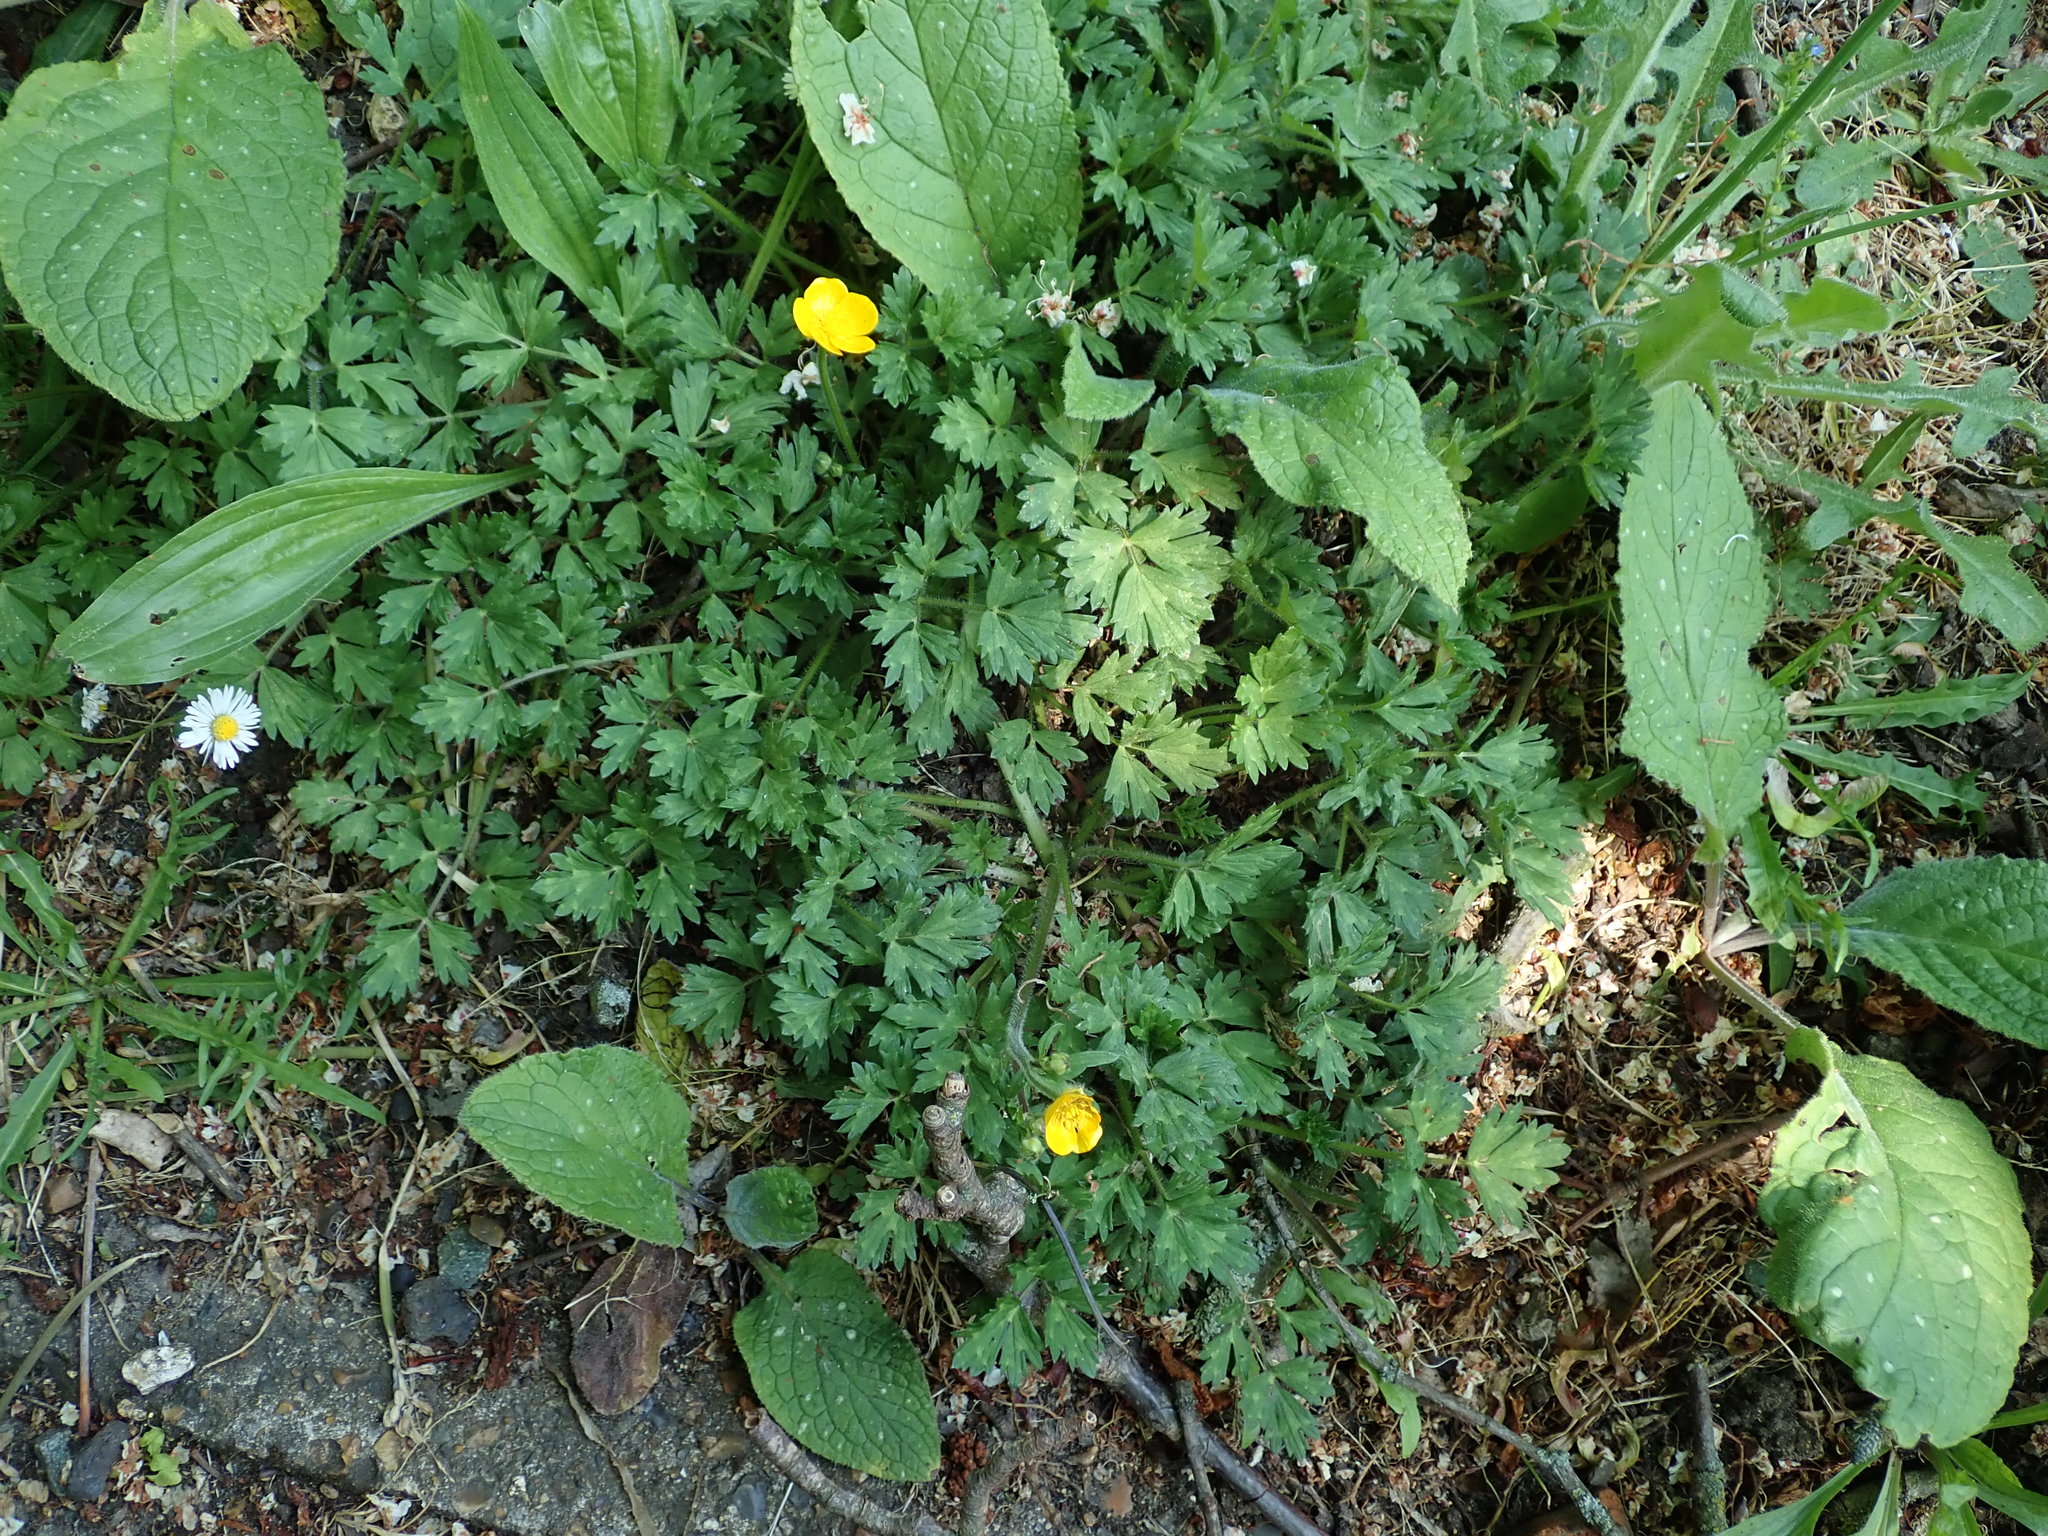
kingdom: Plantae
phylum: Tracheophyta
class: Magnoliopsida
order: Ranunculales
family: Ranunculaceae
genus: Ranunculus
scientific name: Ranunculus repens
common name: Creeping buttercup
